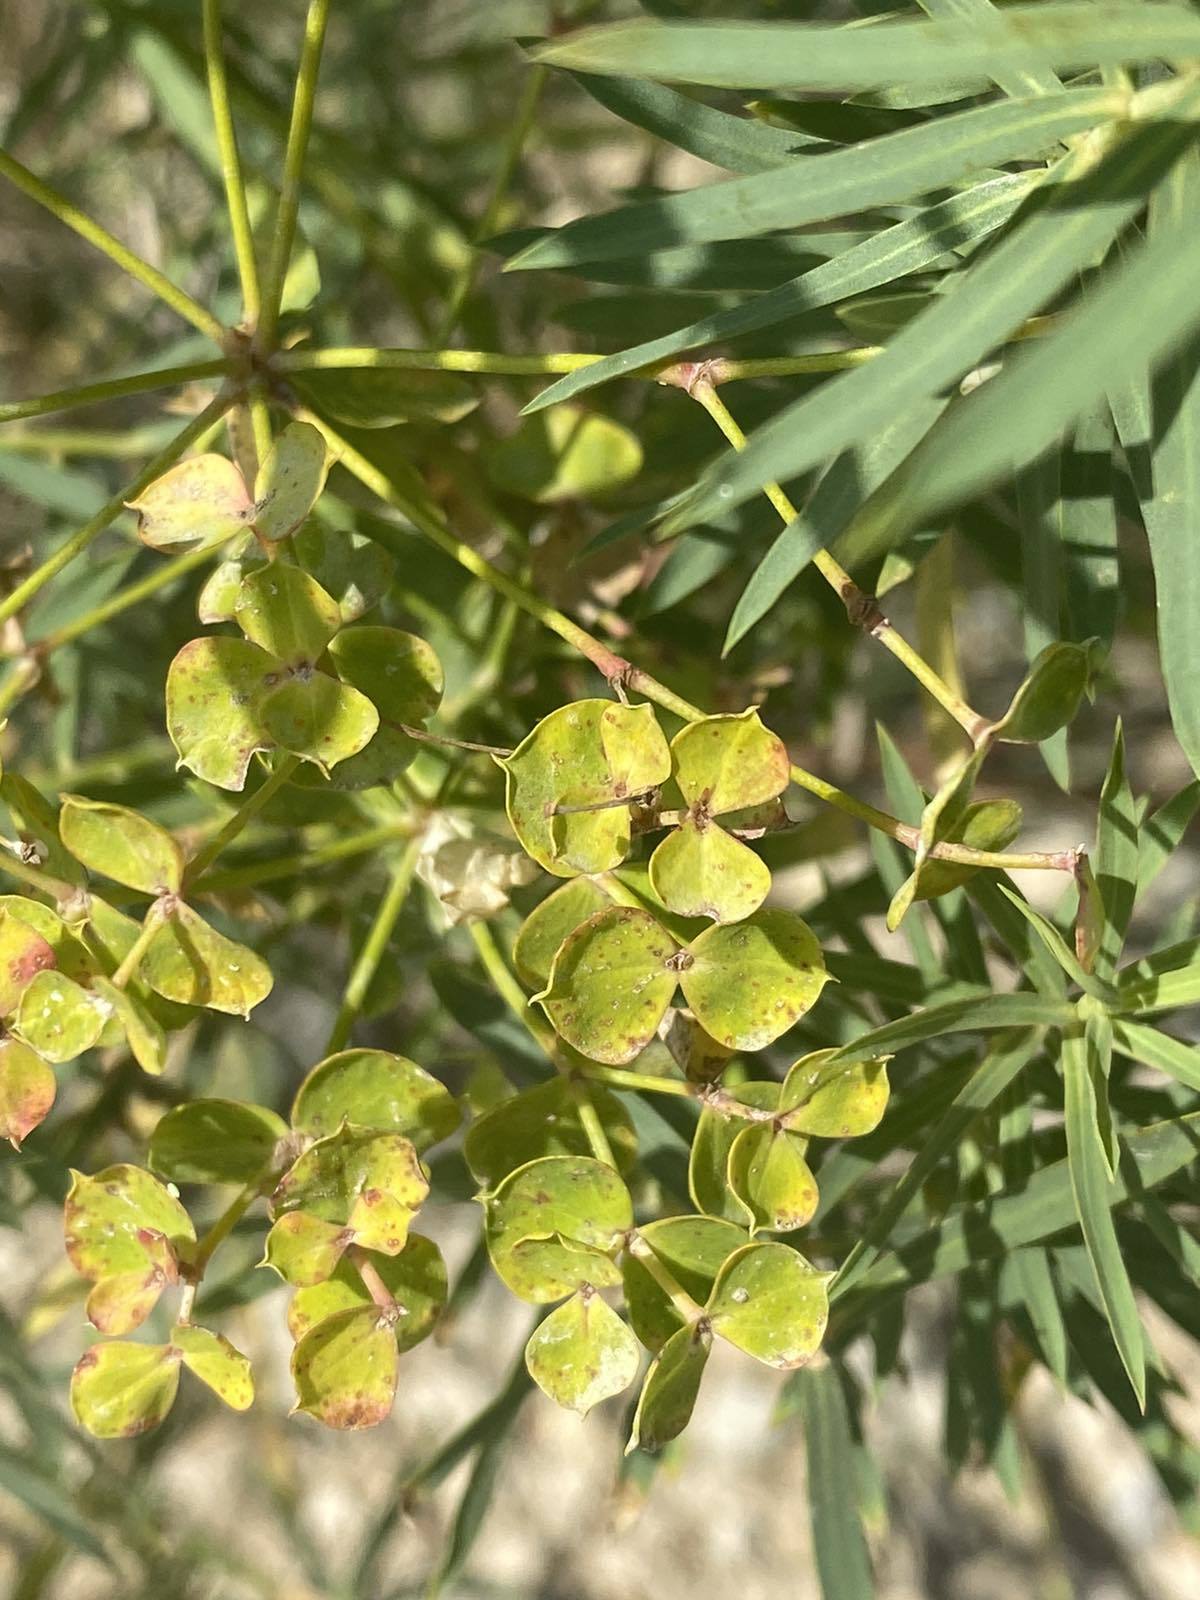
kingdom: Plantae
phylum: Tracheophyta
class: Magnoliopsida
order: Malpighiales
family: Euphorbiaceae
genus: Euphorbia
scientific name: Euphorbia virgata
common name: Leafy spurge
